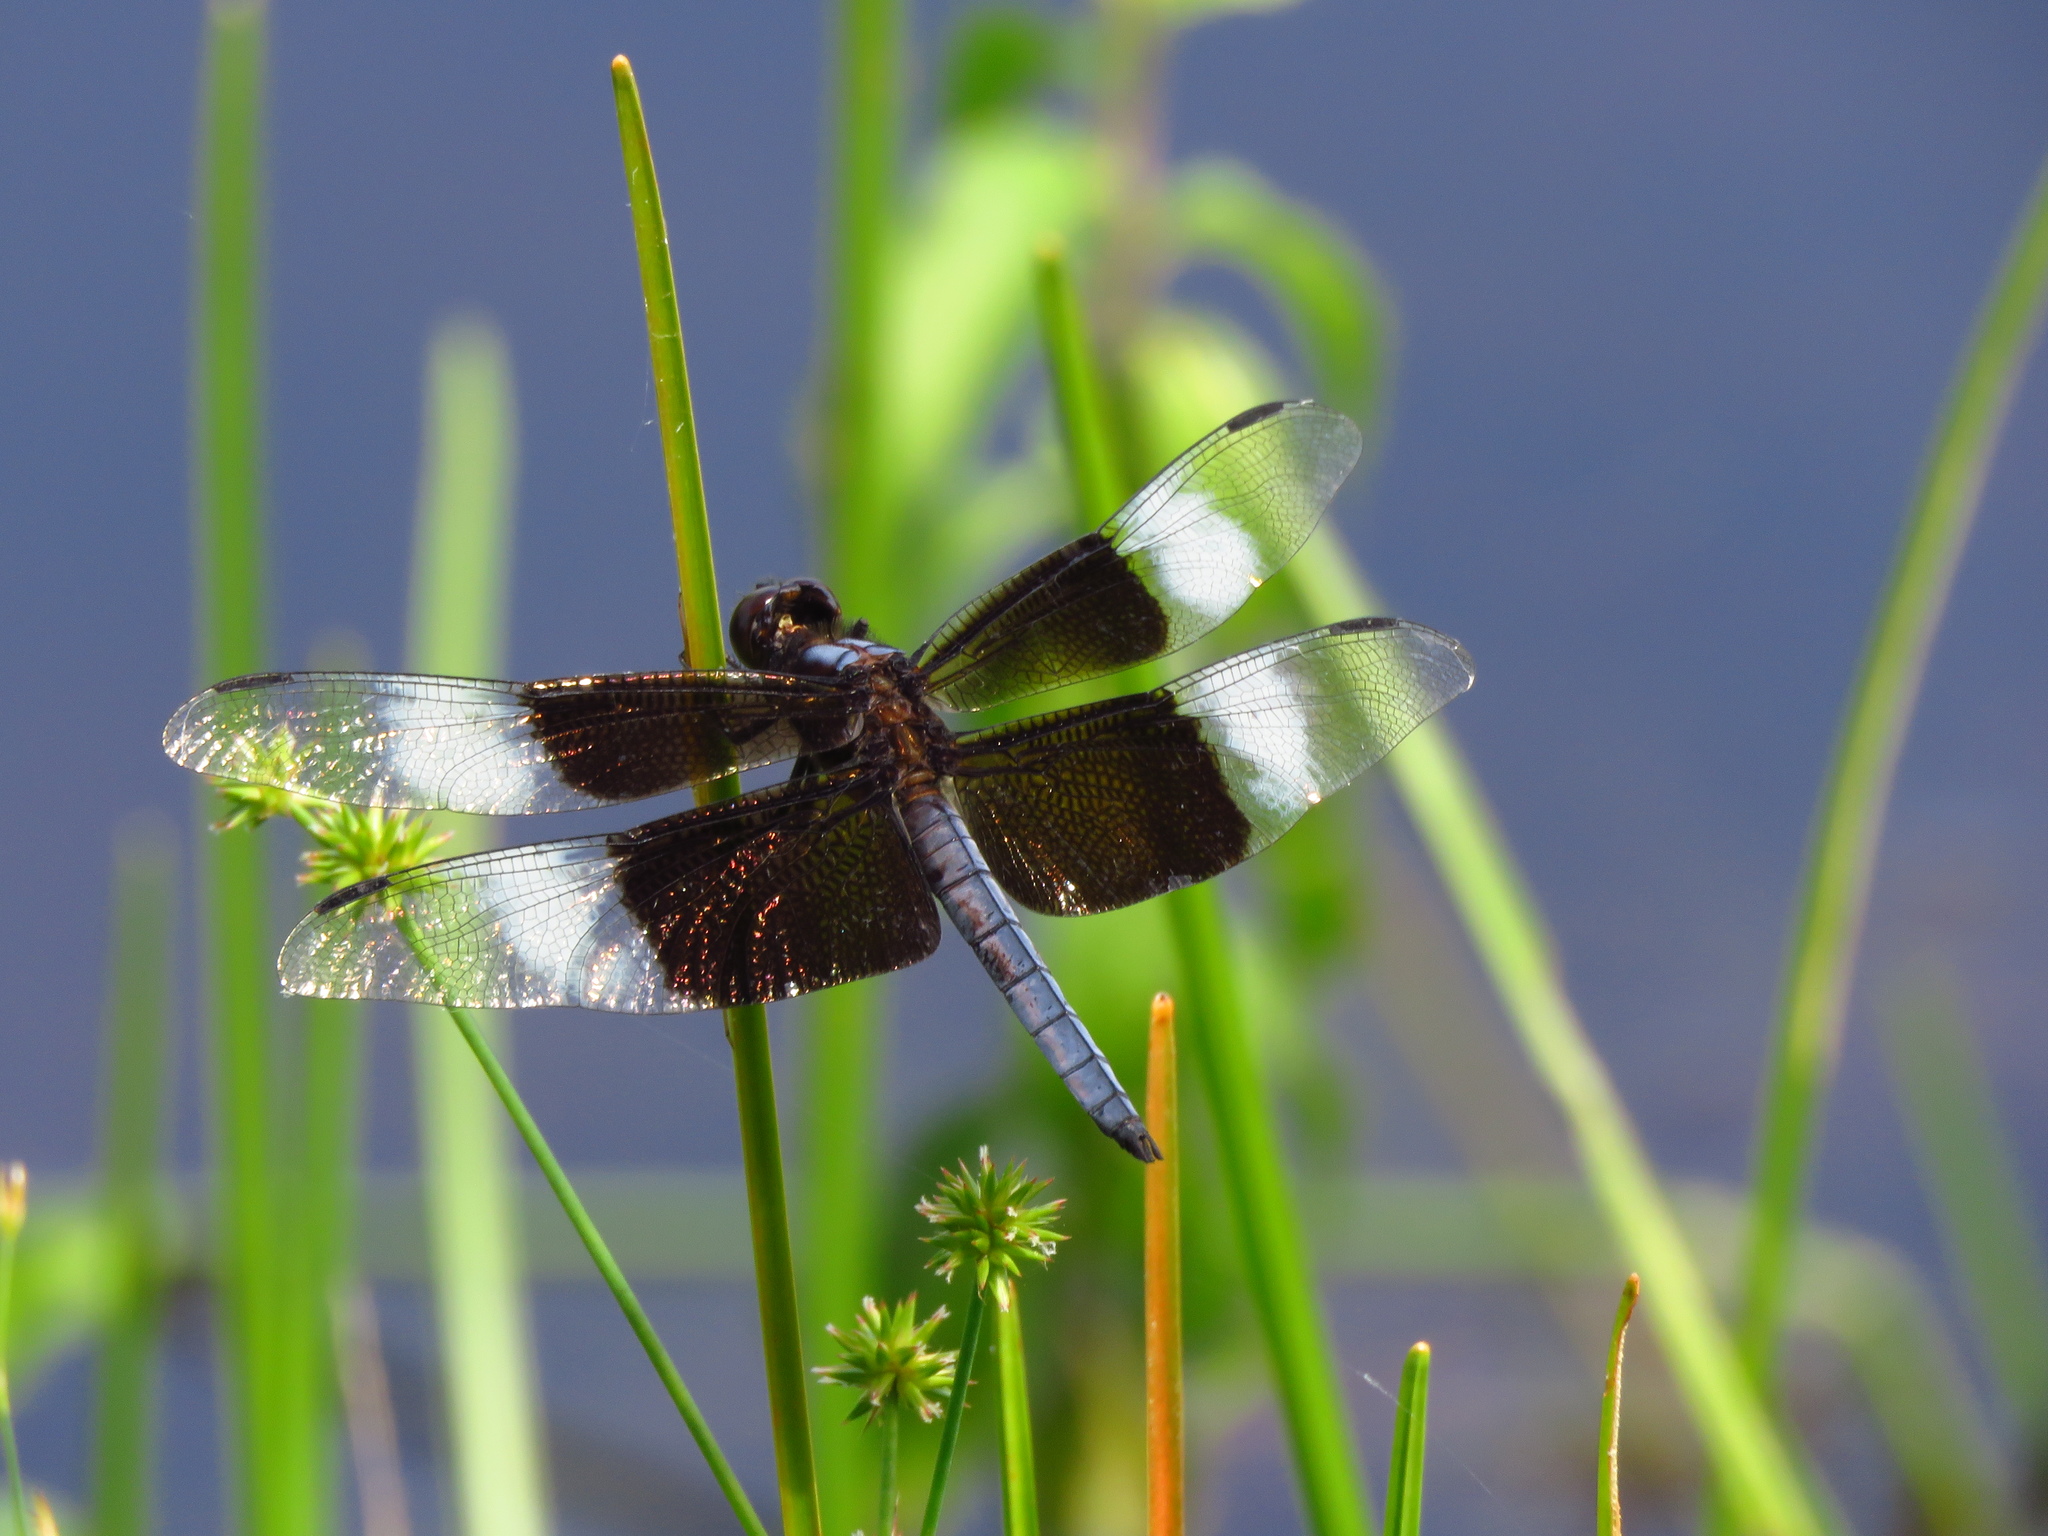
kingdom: Animalia
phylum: Arthropoda
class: Insecta
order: Odonata
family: Libellulidae
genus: Libellula
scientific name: Libellula luctuosa
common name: Widow skimmer
